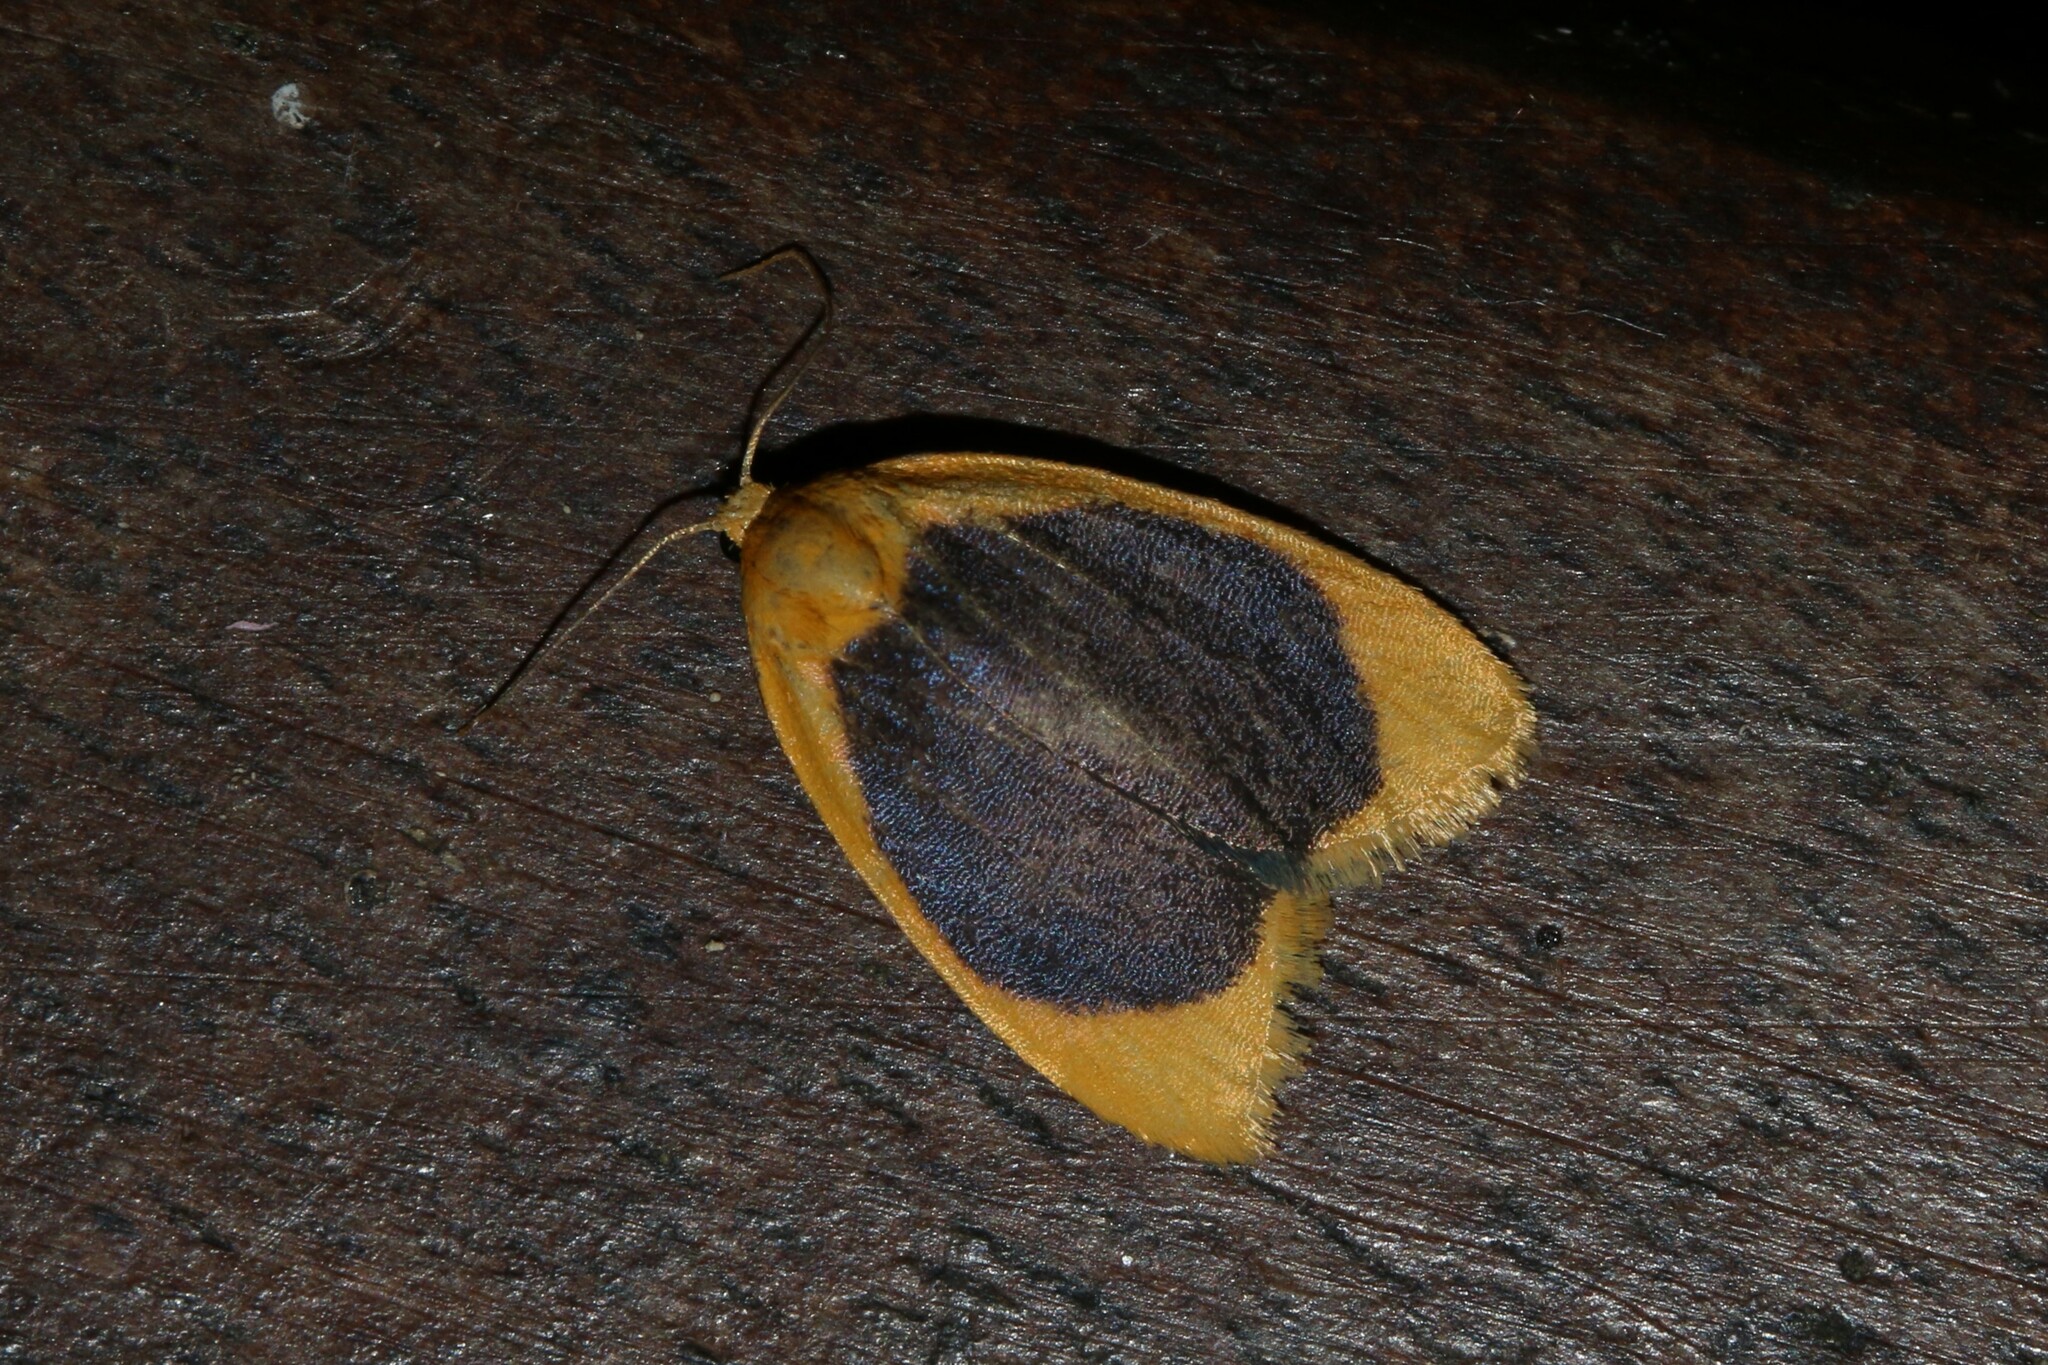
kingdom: Animalia
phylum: Arthropoda
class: Insecta
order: Lepidoptera
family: Erebidae
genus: Pronola
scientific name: Pronola magniplaga
